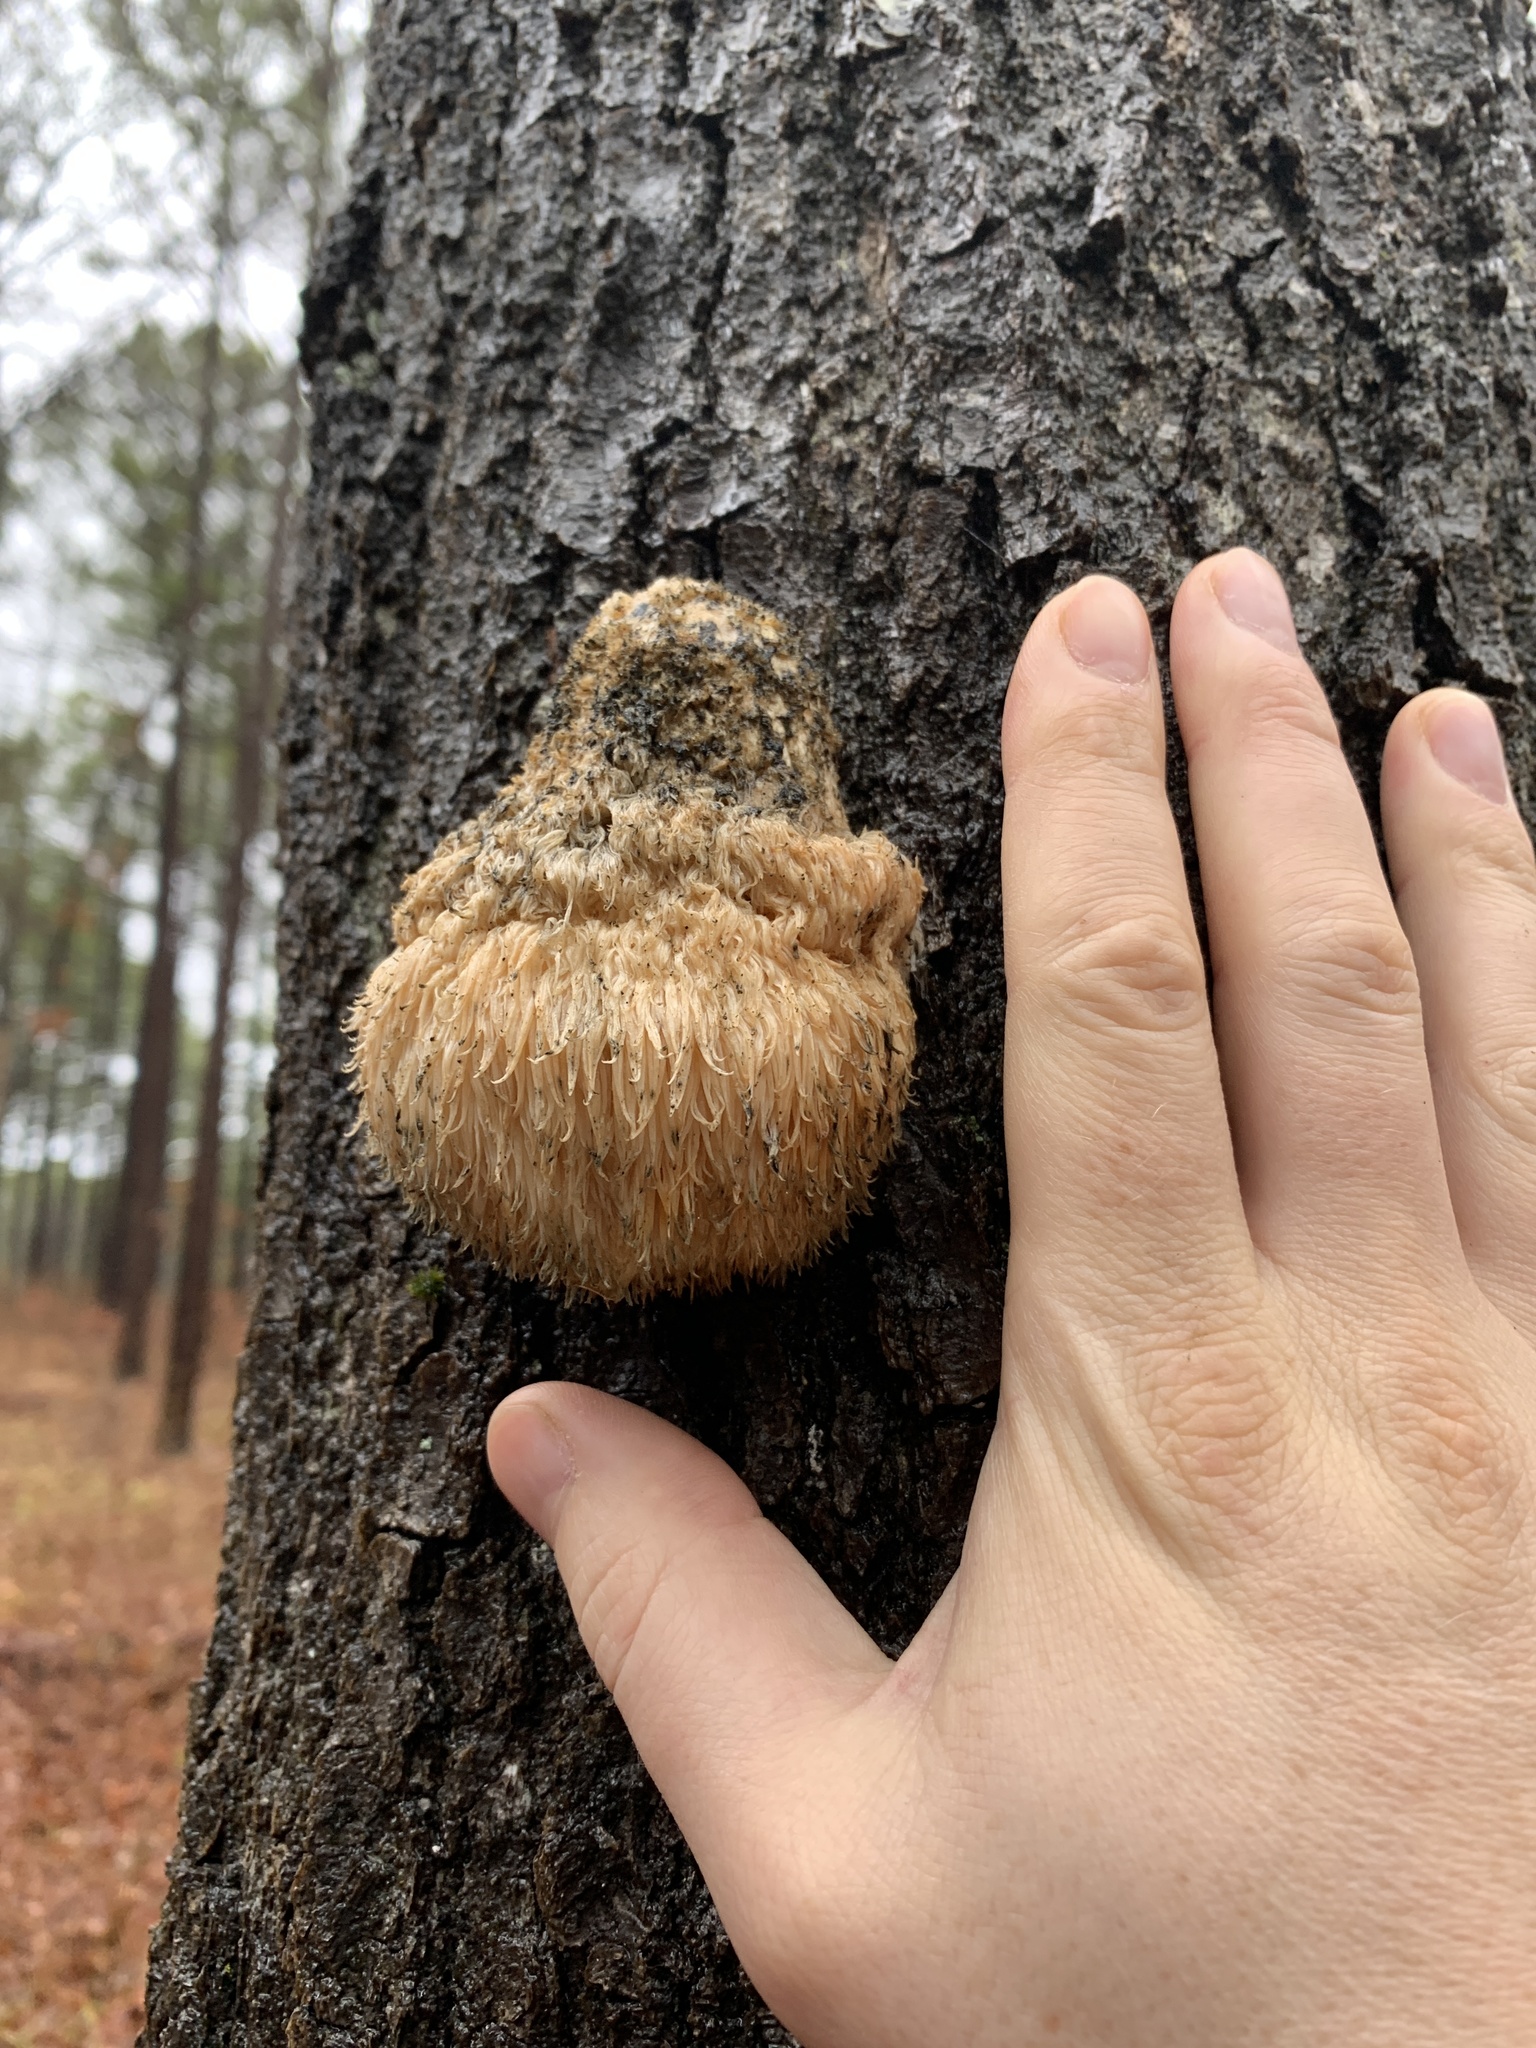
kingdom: Fungi
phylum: Basidiomycota
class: Agaricomycetes
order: Russulales
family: Hericiaceae
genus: Hericium
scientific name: Hericium erinaceus
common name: Bearded tooth
